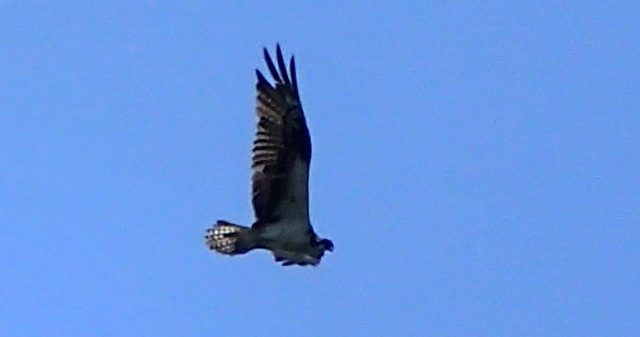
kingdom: Animalia
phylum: Chordata
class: Aves
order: Accipitriformes
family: Pandionidae
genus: Pandion
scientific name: Pandion haliaetus
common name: Osprey
